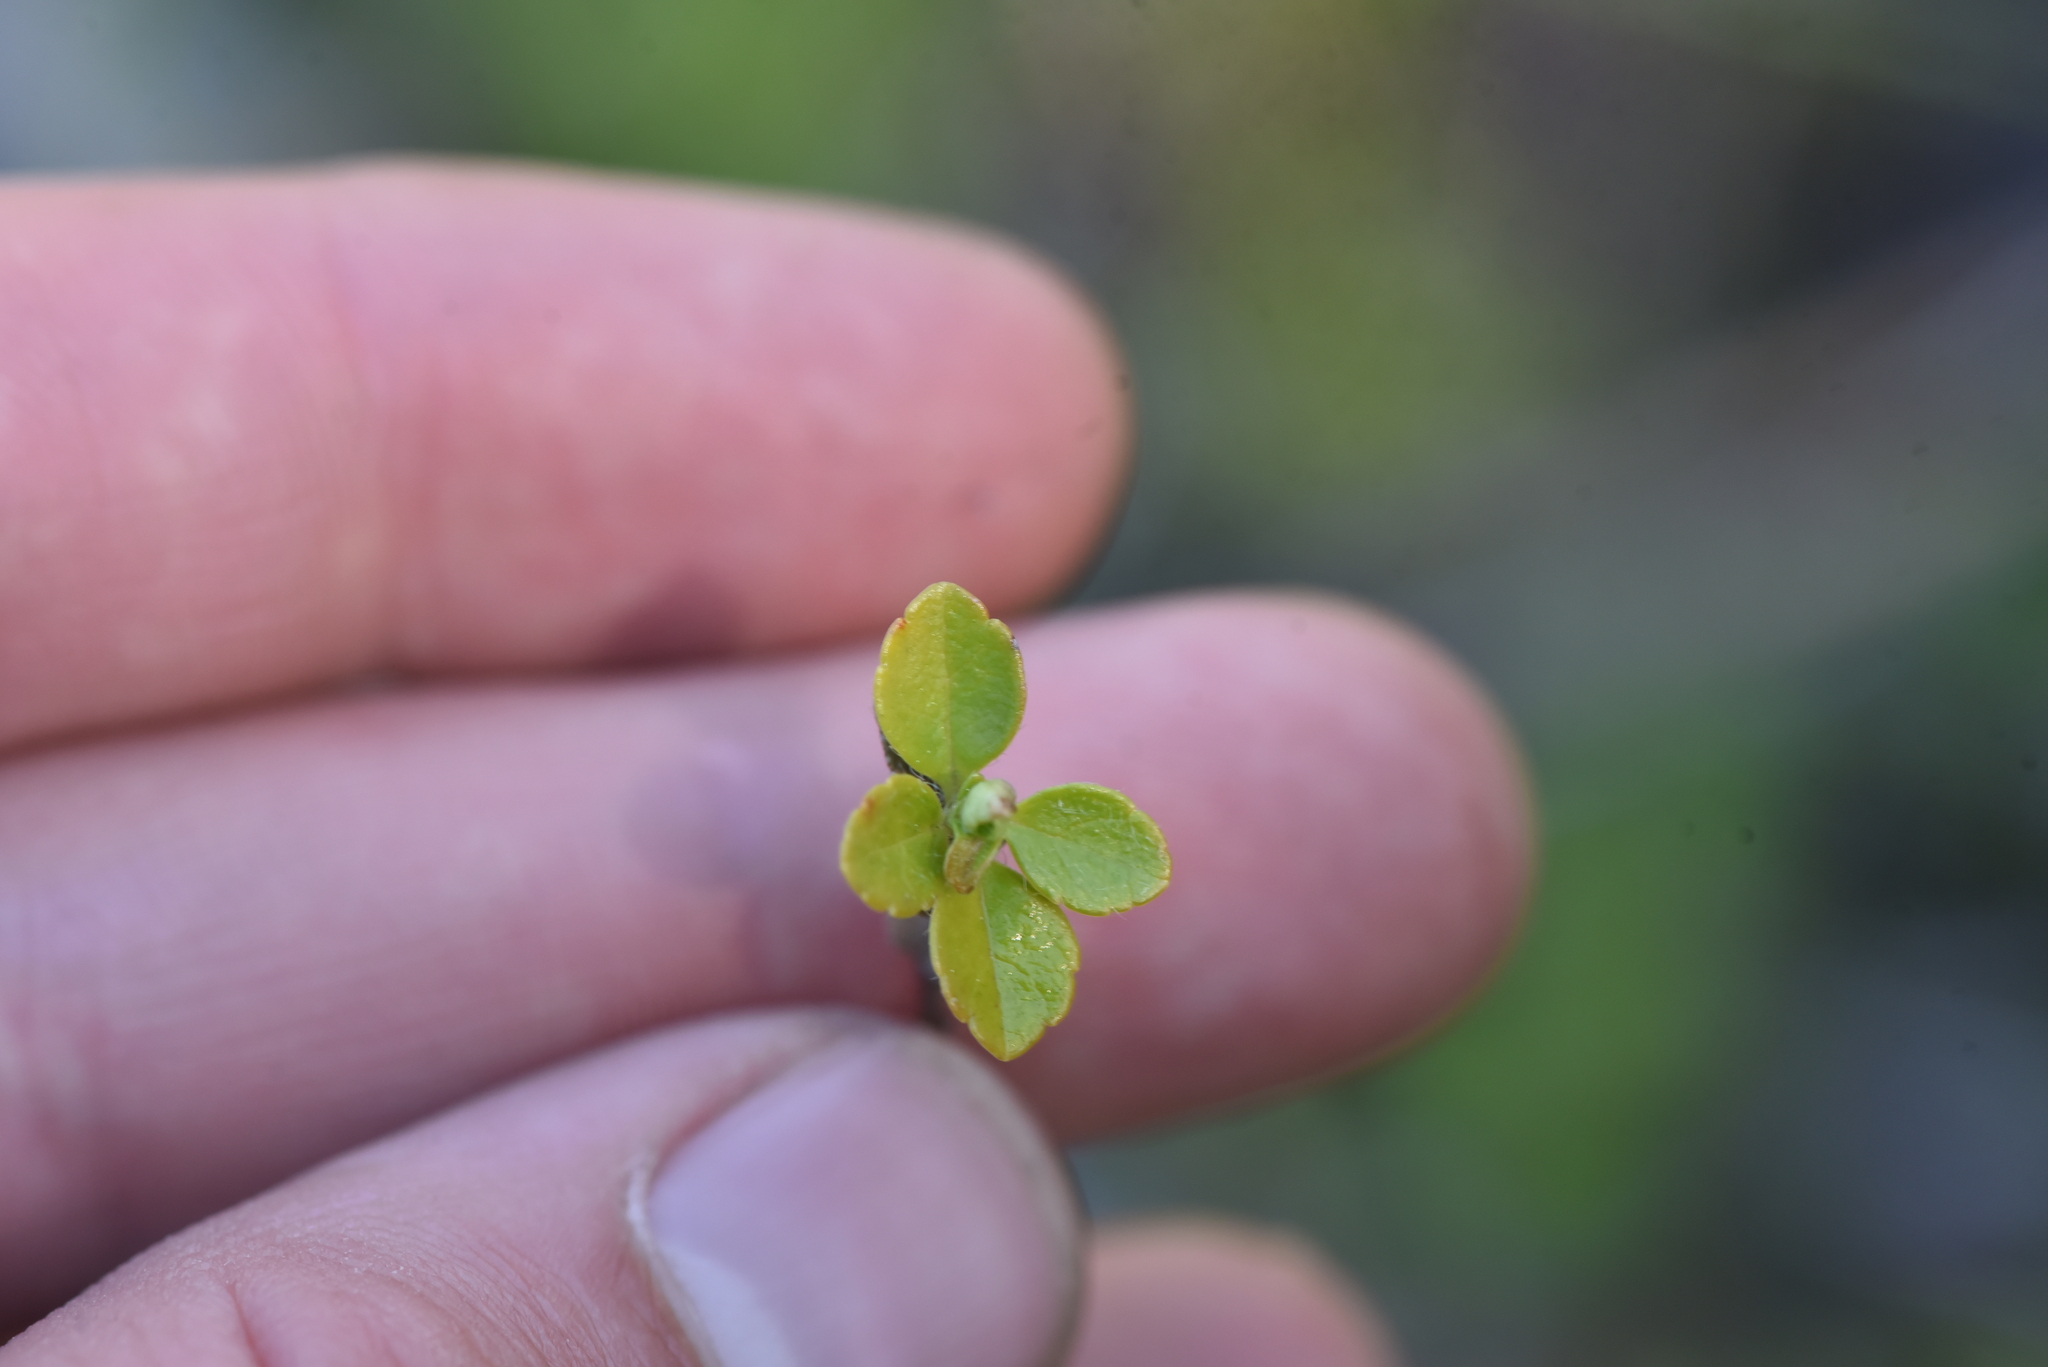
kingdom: Plantae
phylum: Tracheophyta
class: Magnoliopsida
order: Dipsacales
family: Caprifoliaceae
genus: Linnaea
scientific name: Linnaea borealis
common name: Twinflower
